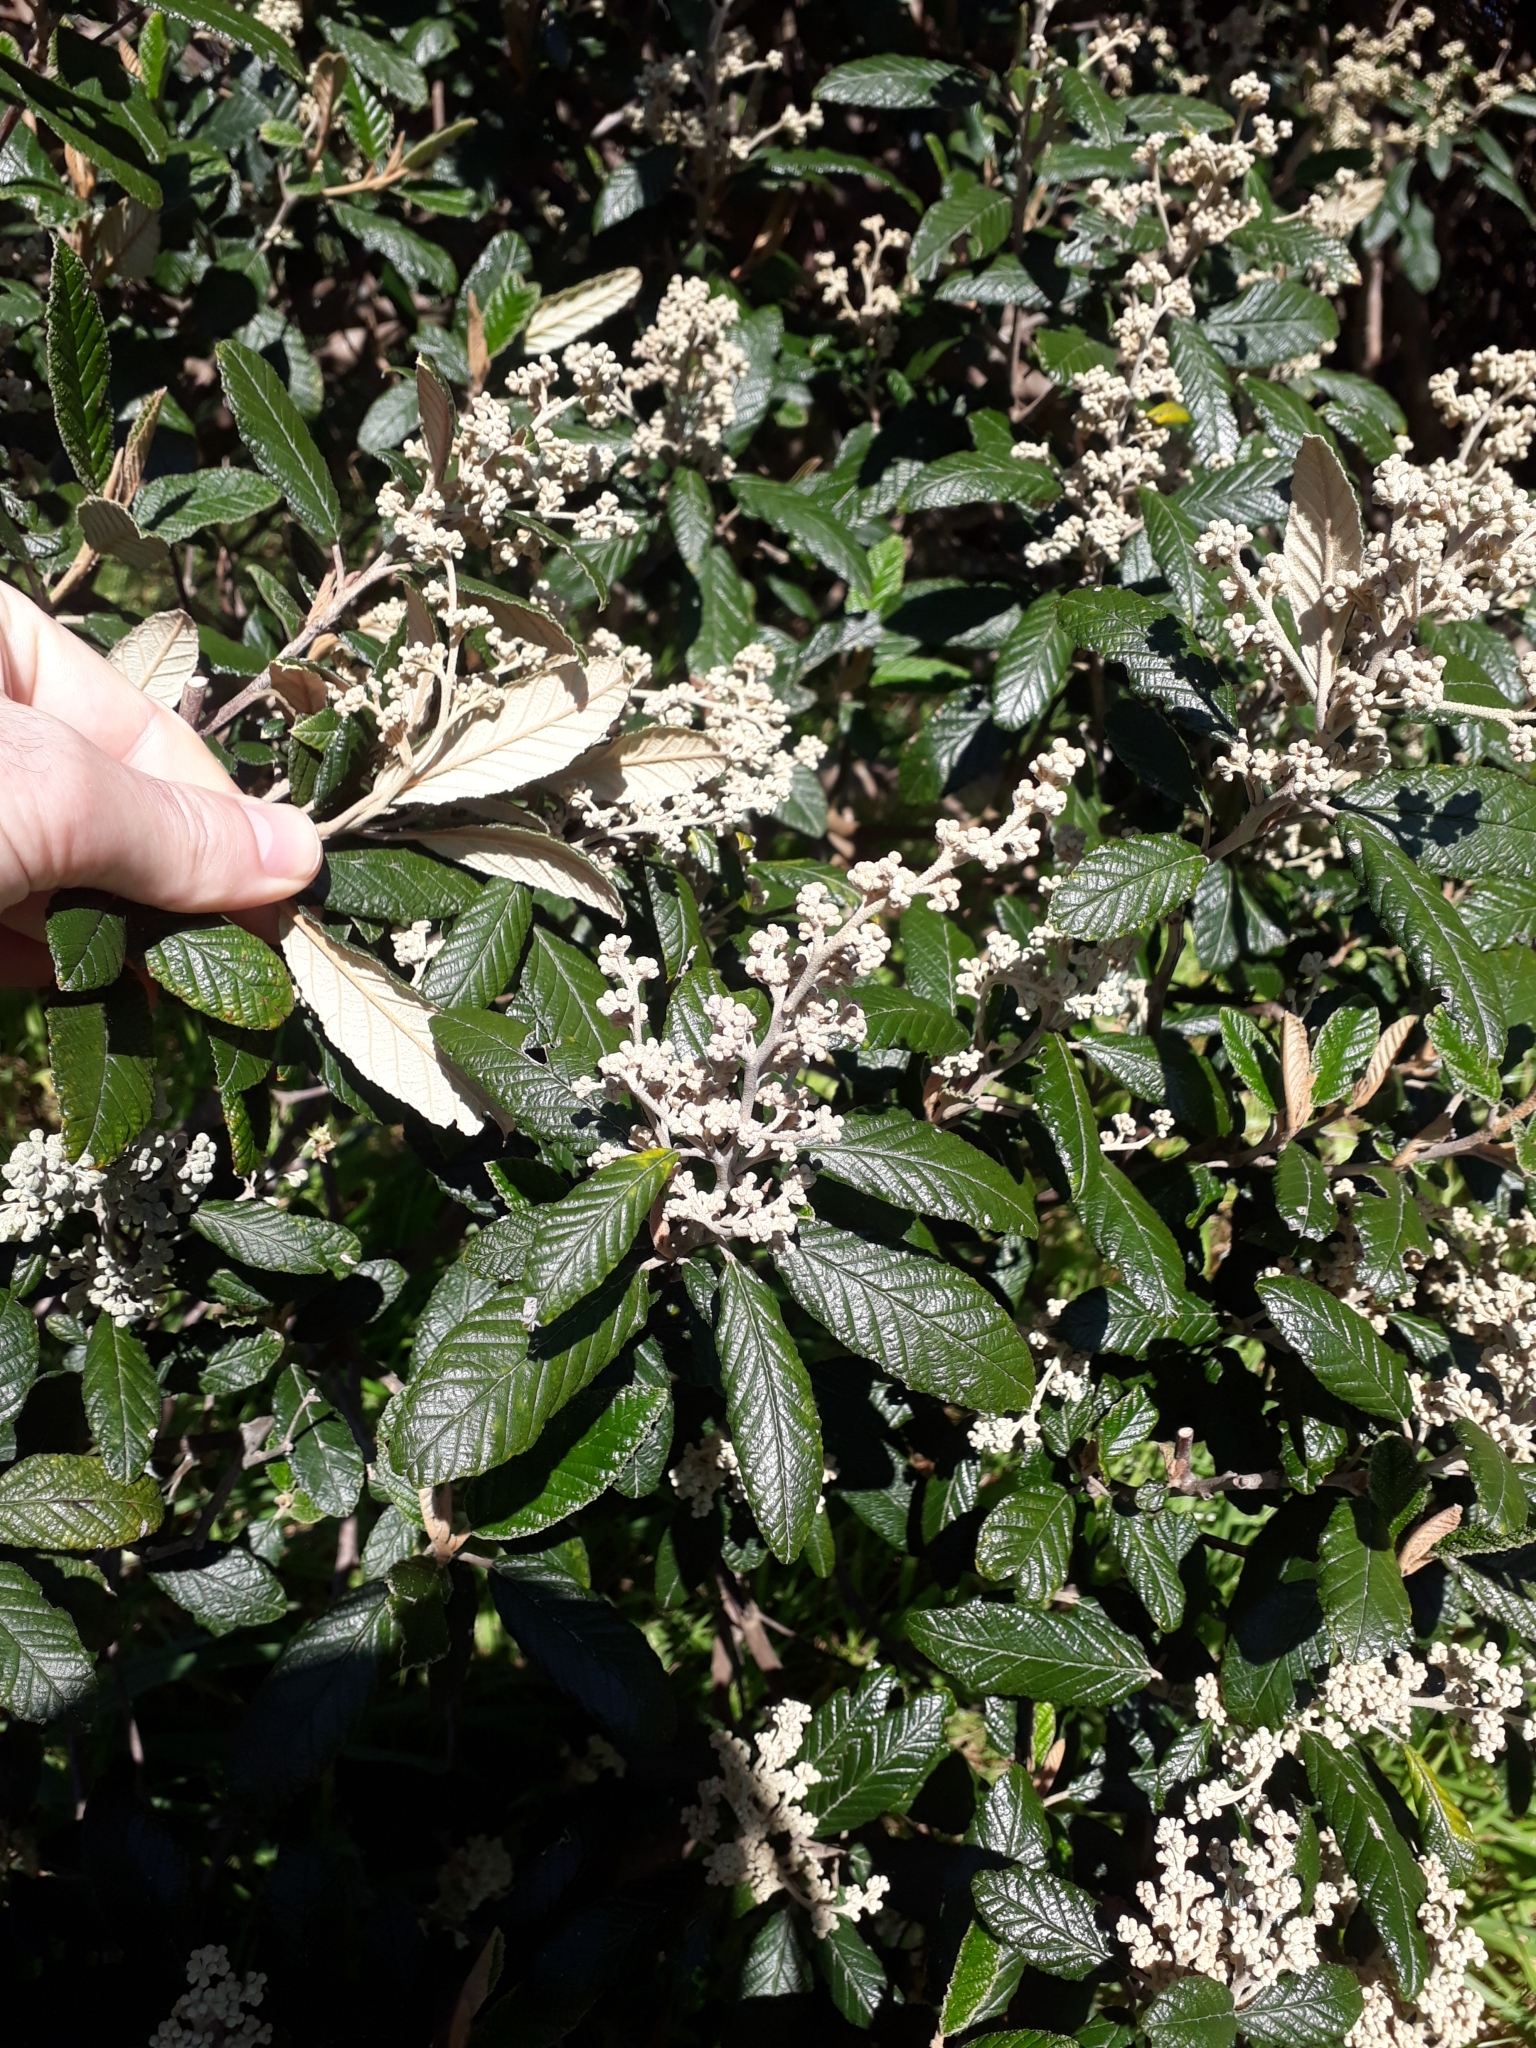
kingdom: Plantae
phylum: Tracheophyta
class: Magnoliopsida
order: Rosales
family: Rhamnaceae
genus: Pomaderris
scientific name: Pomaderris apetala
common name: Hazel pomaderris
